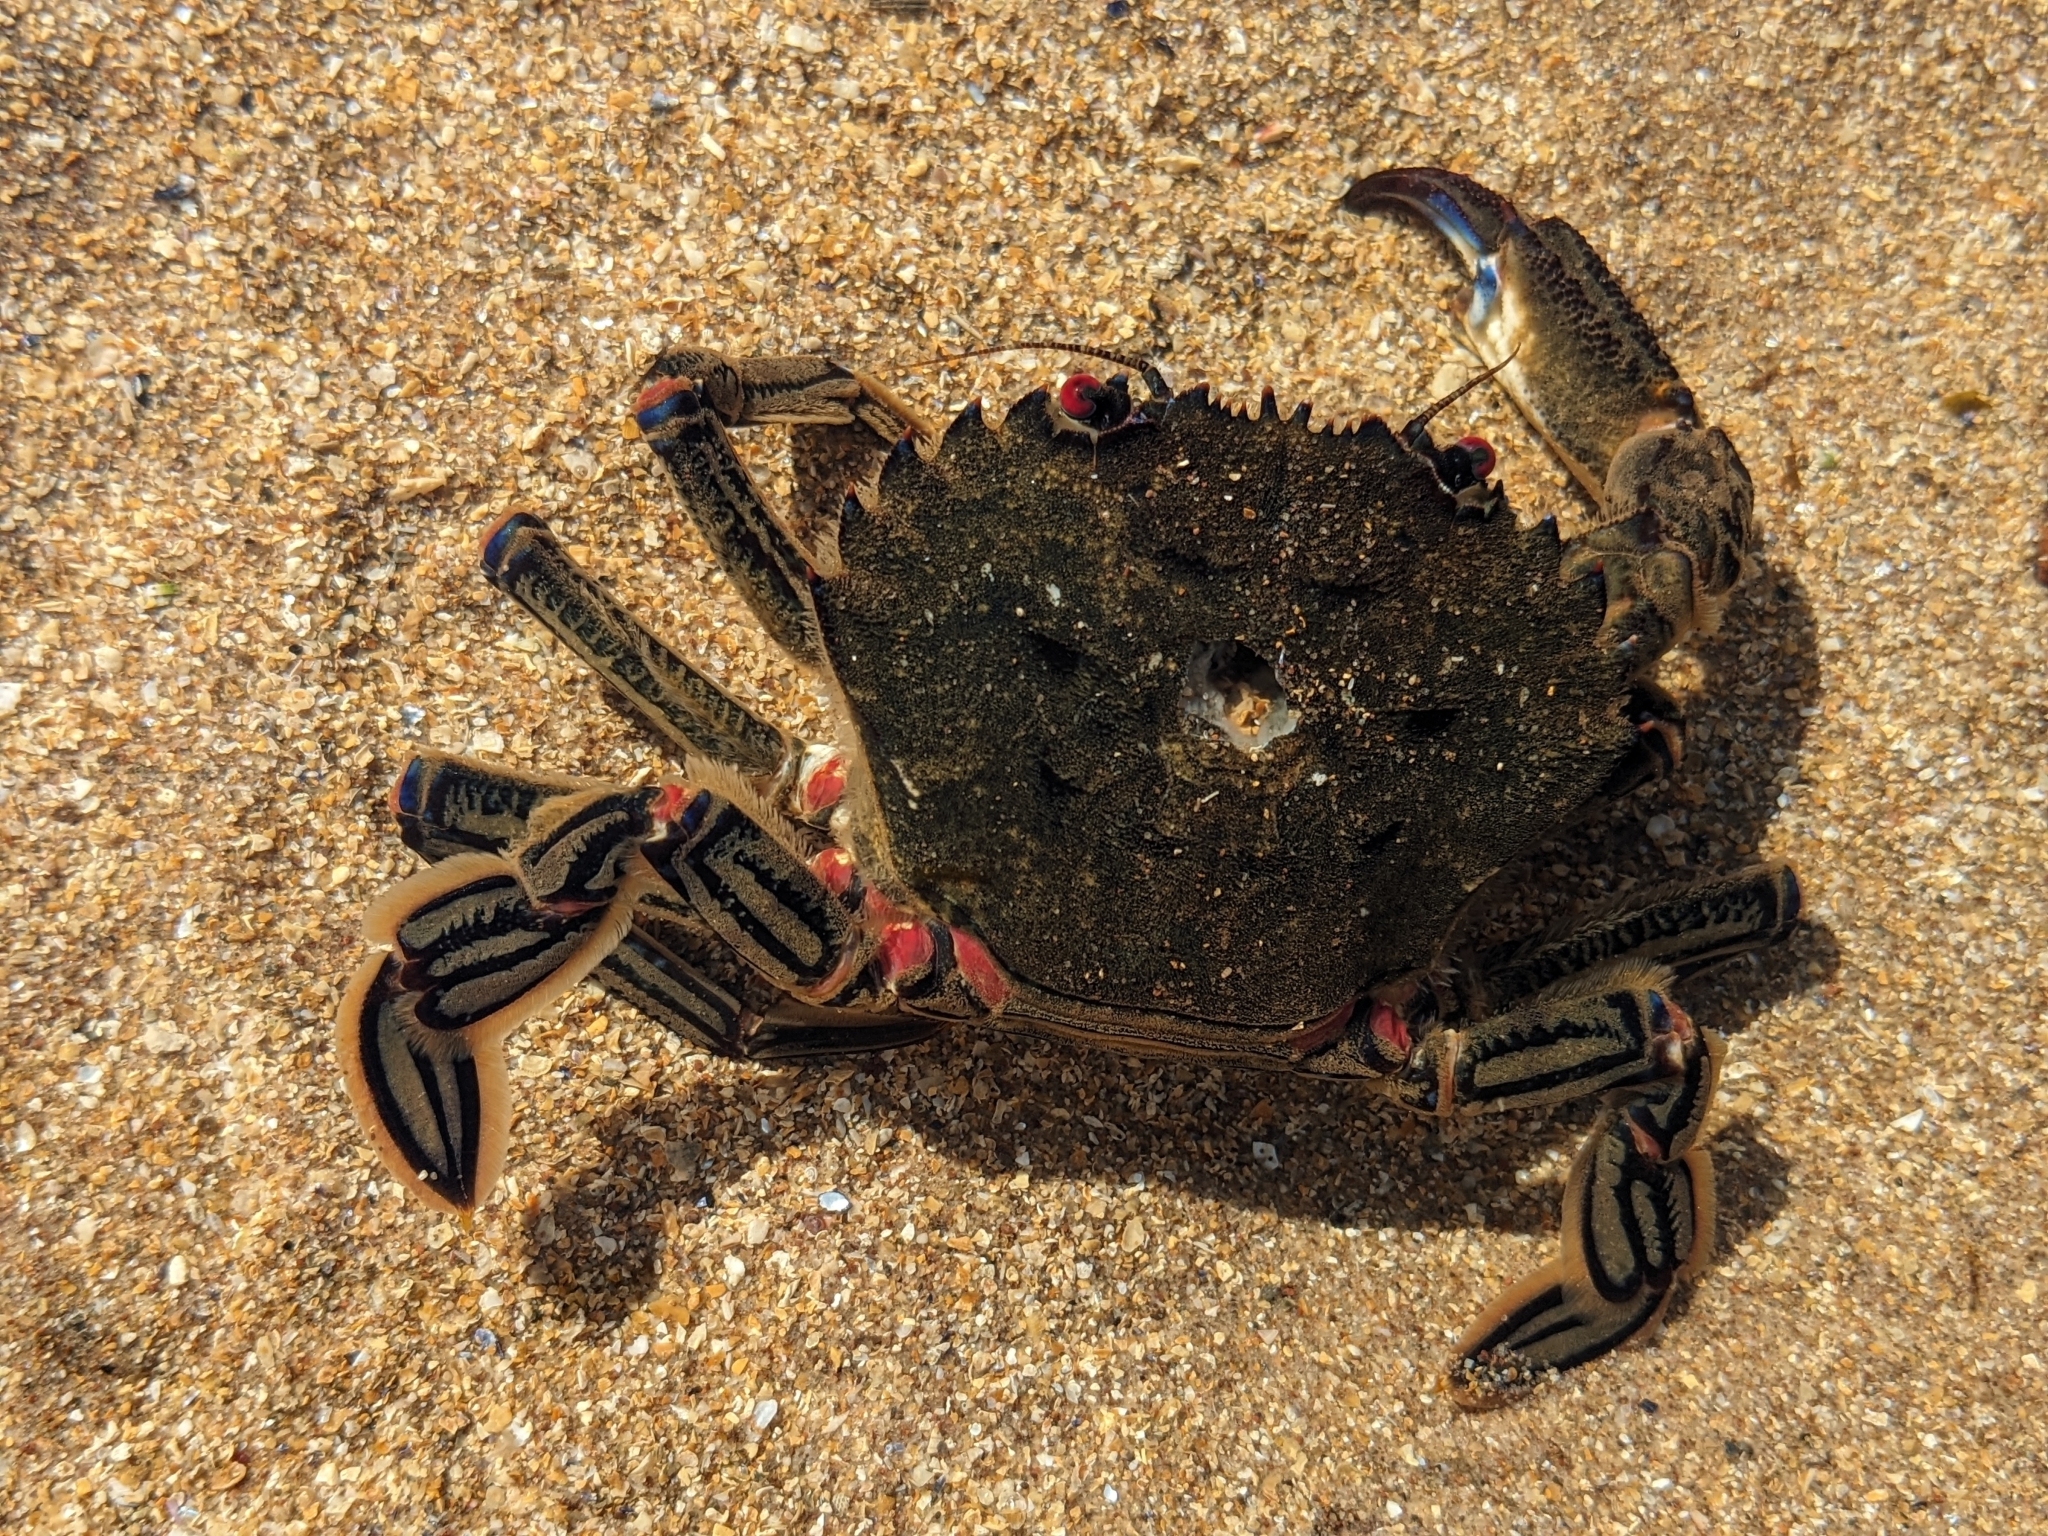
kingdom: Animalia
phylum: Arthropoda
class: Malacostraca
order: Decapoda
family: Polybiidae
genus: Necora
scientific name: Necora puber
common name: Velvet swimming crab
